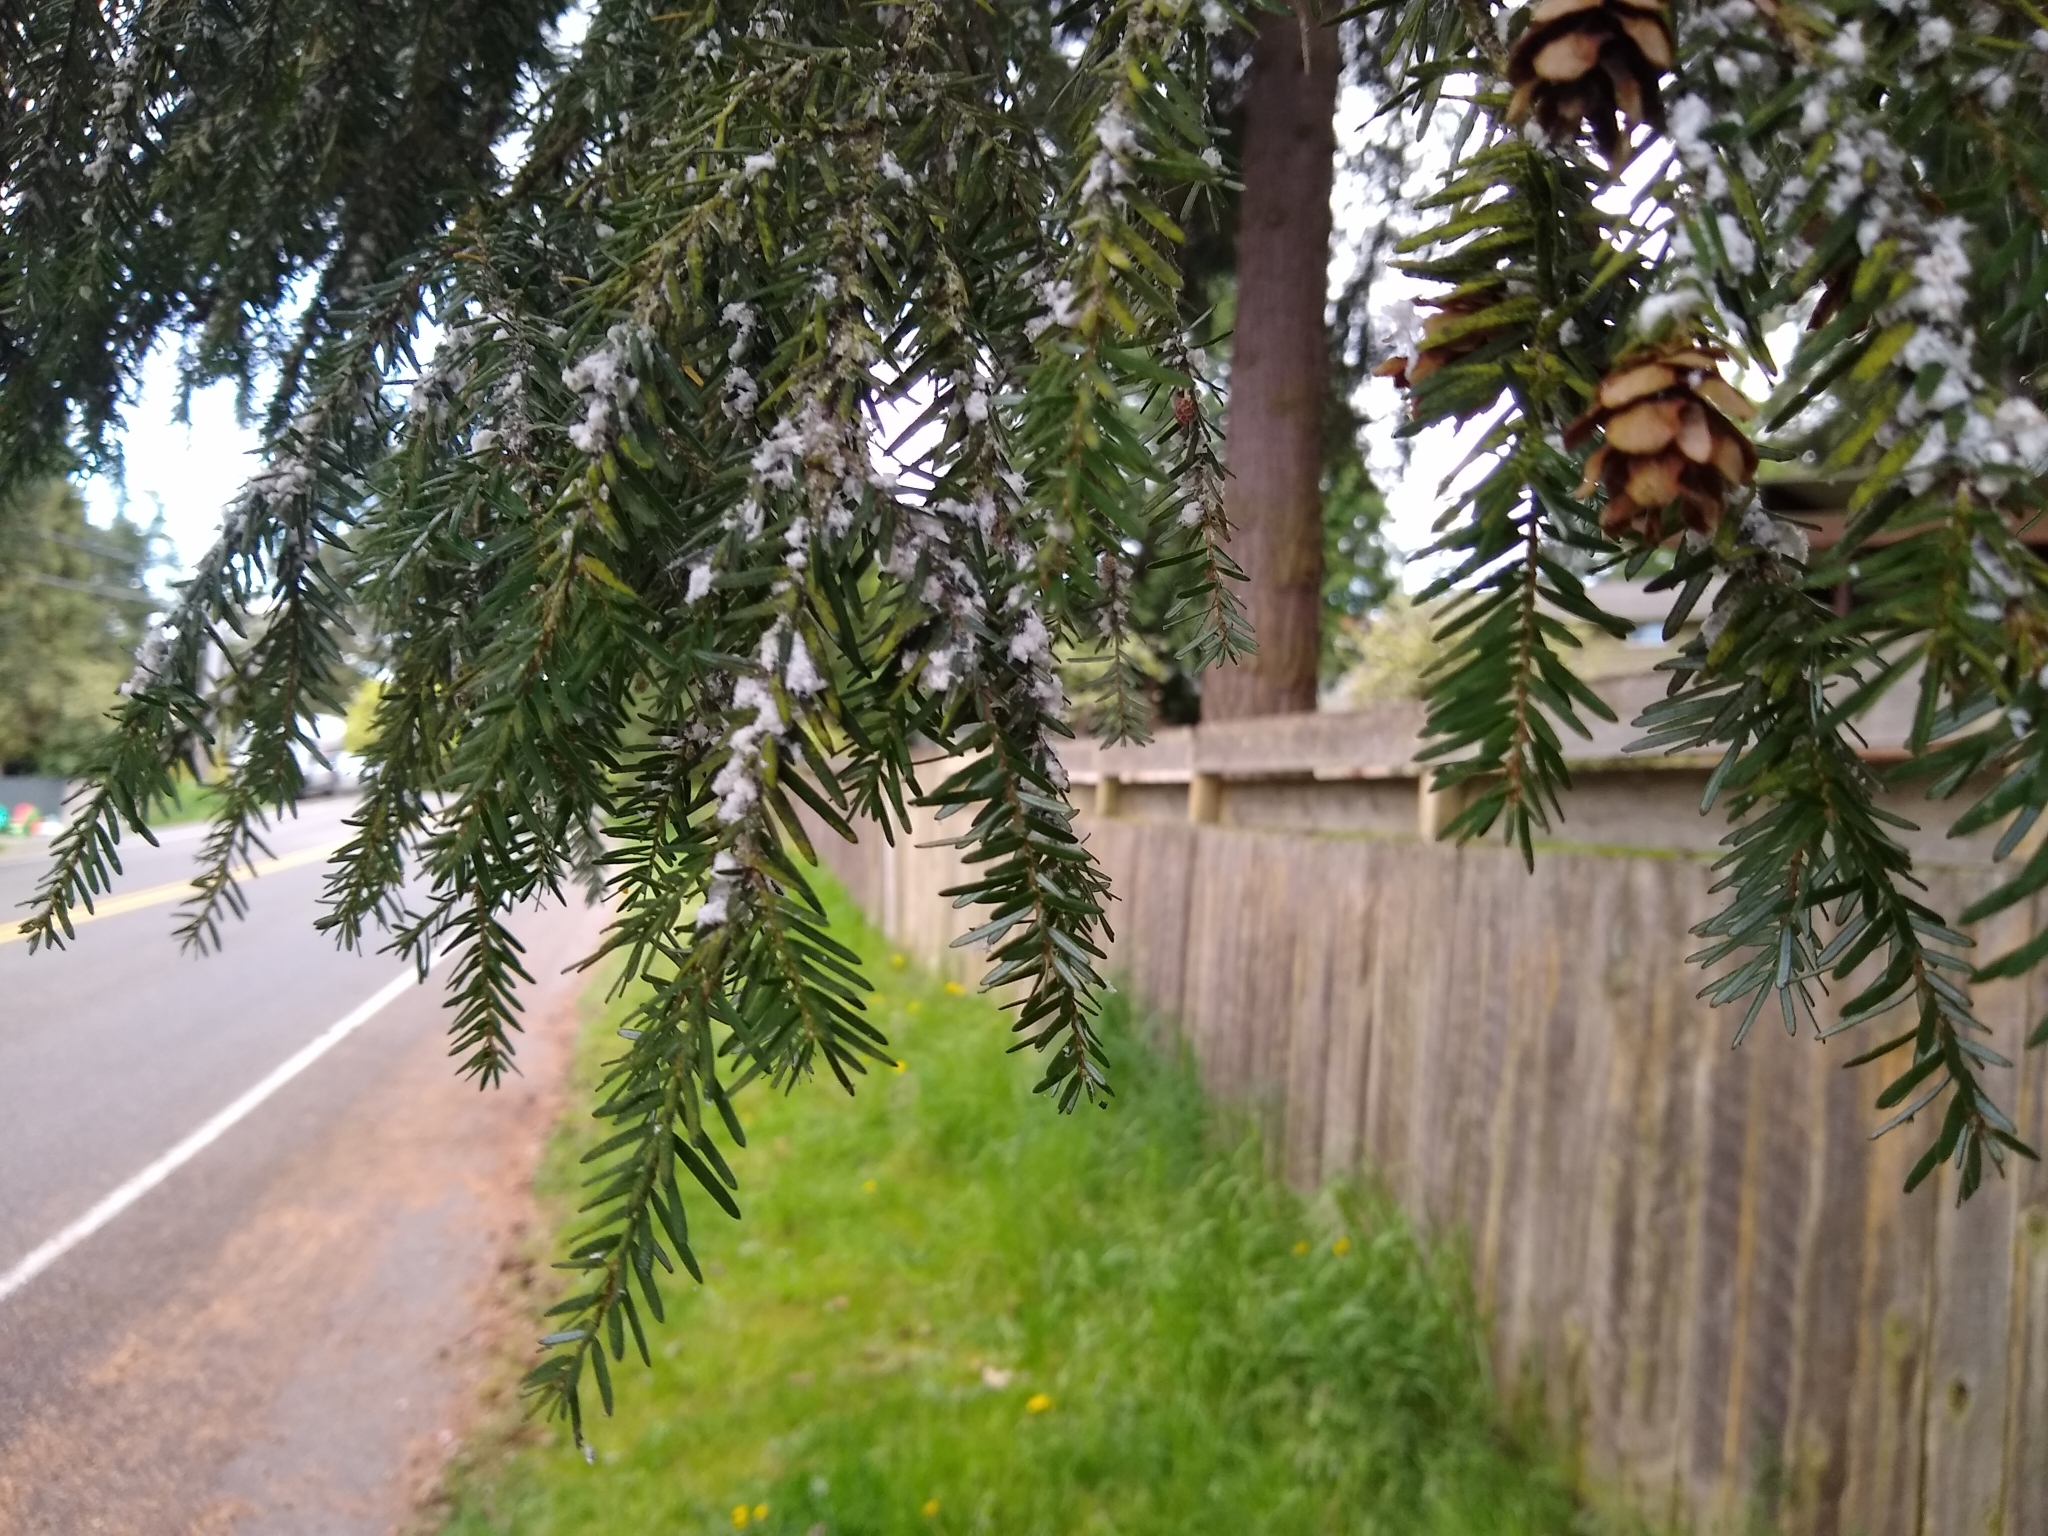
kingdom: Plantae
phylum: Tracheophyta
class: Pinopsida
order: Pinales
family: Pinaceae
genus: Tsuga
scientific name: Tsuga heterophylla
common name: Western hemlock
